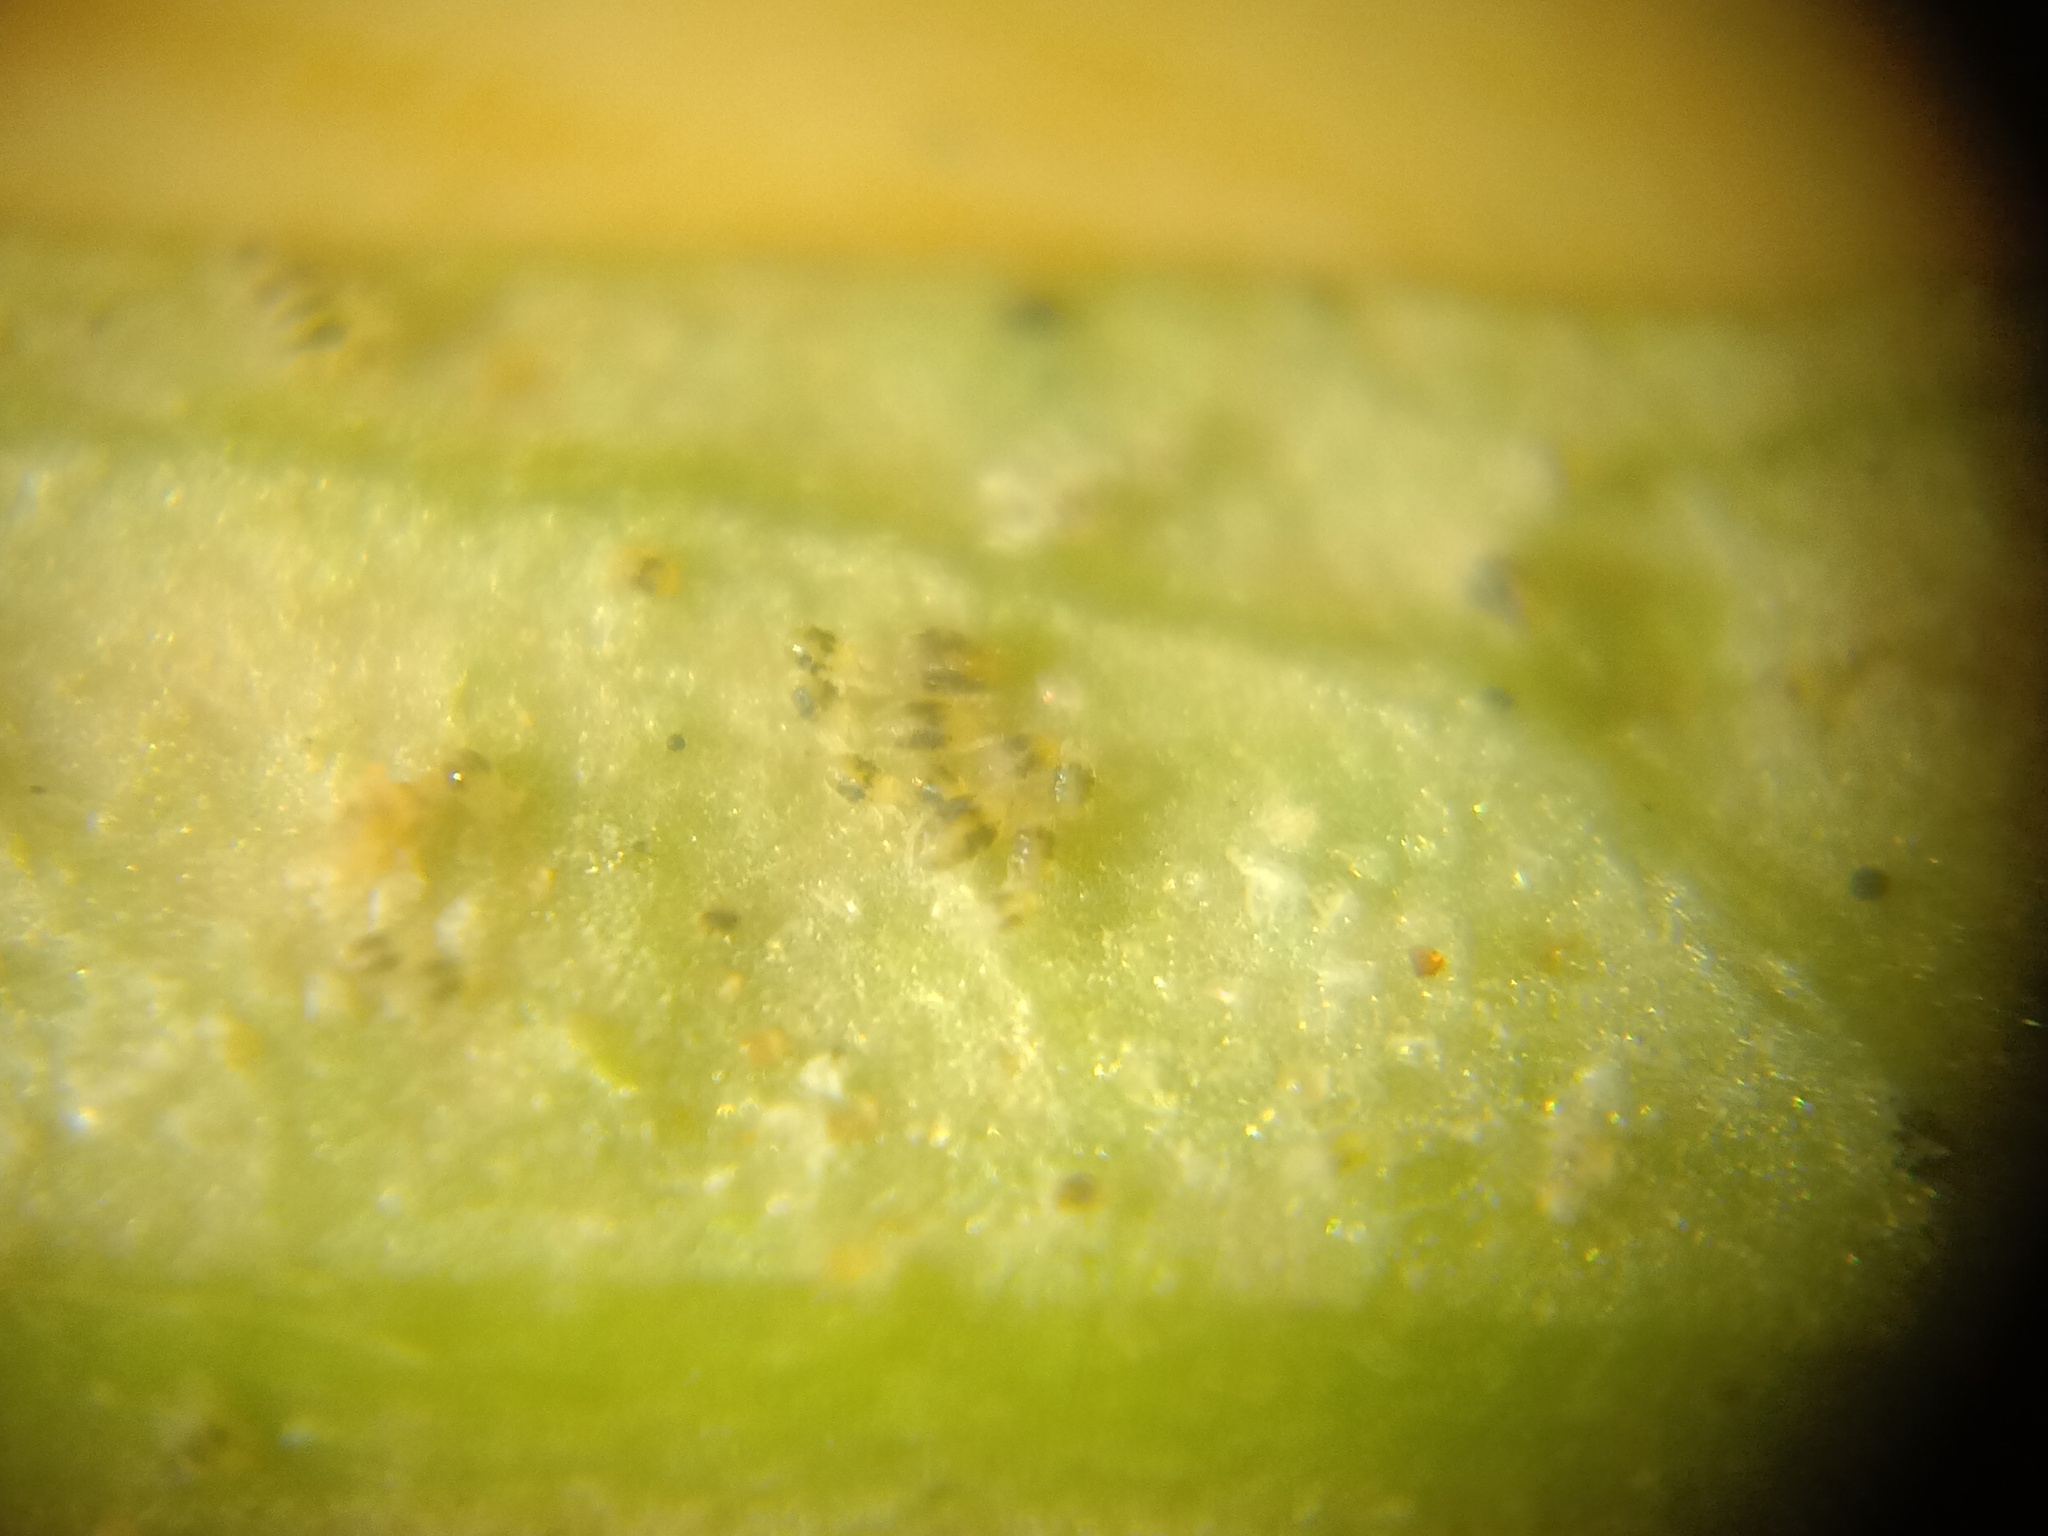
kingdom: Animalia
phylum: Arthropoda
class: Arachnida
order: Trombidiformes
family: Tetranychidae
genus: Tetranychus
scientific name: Tetranychus urticae
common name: Carmine spider mite
